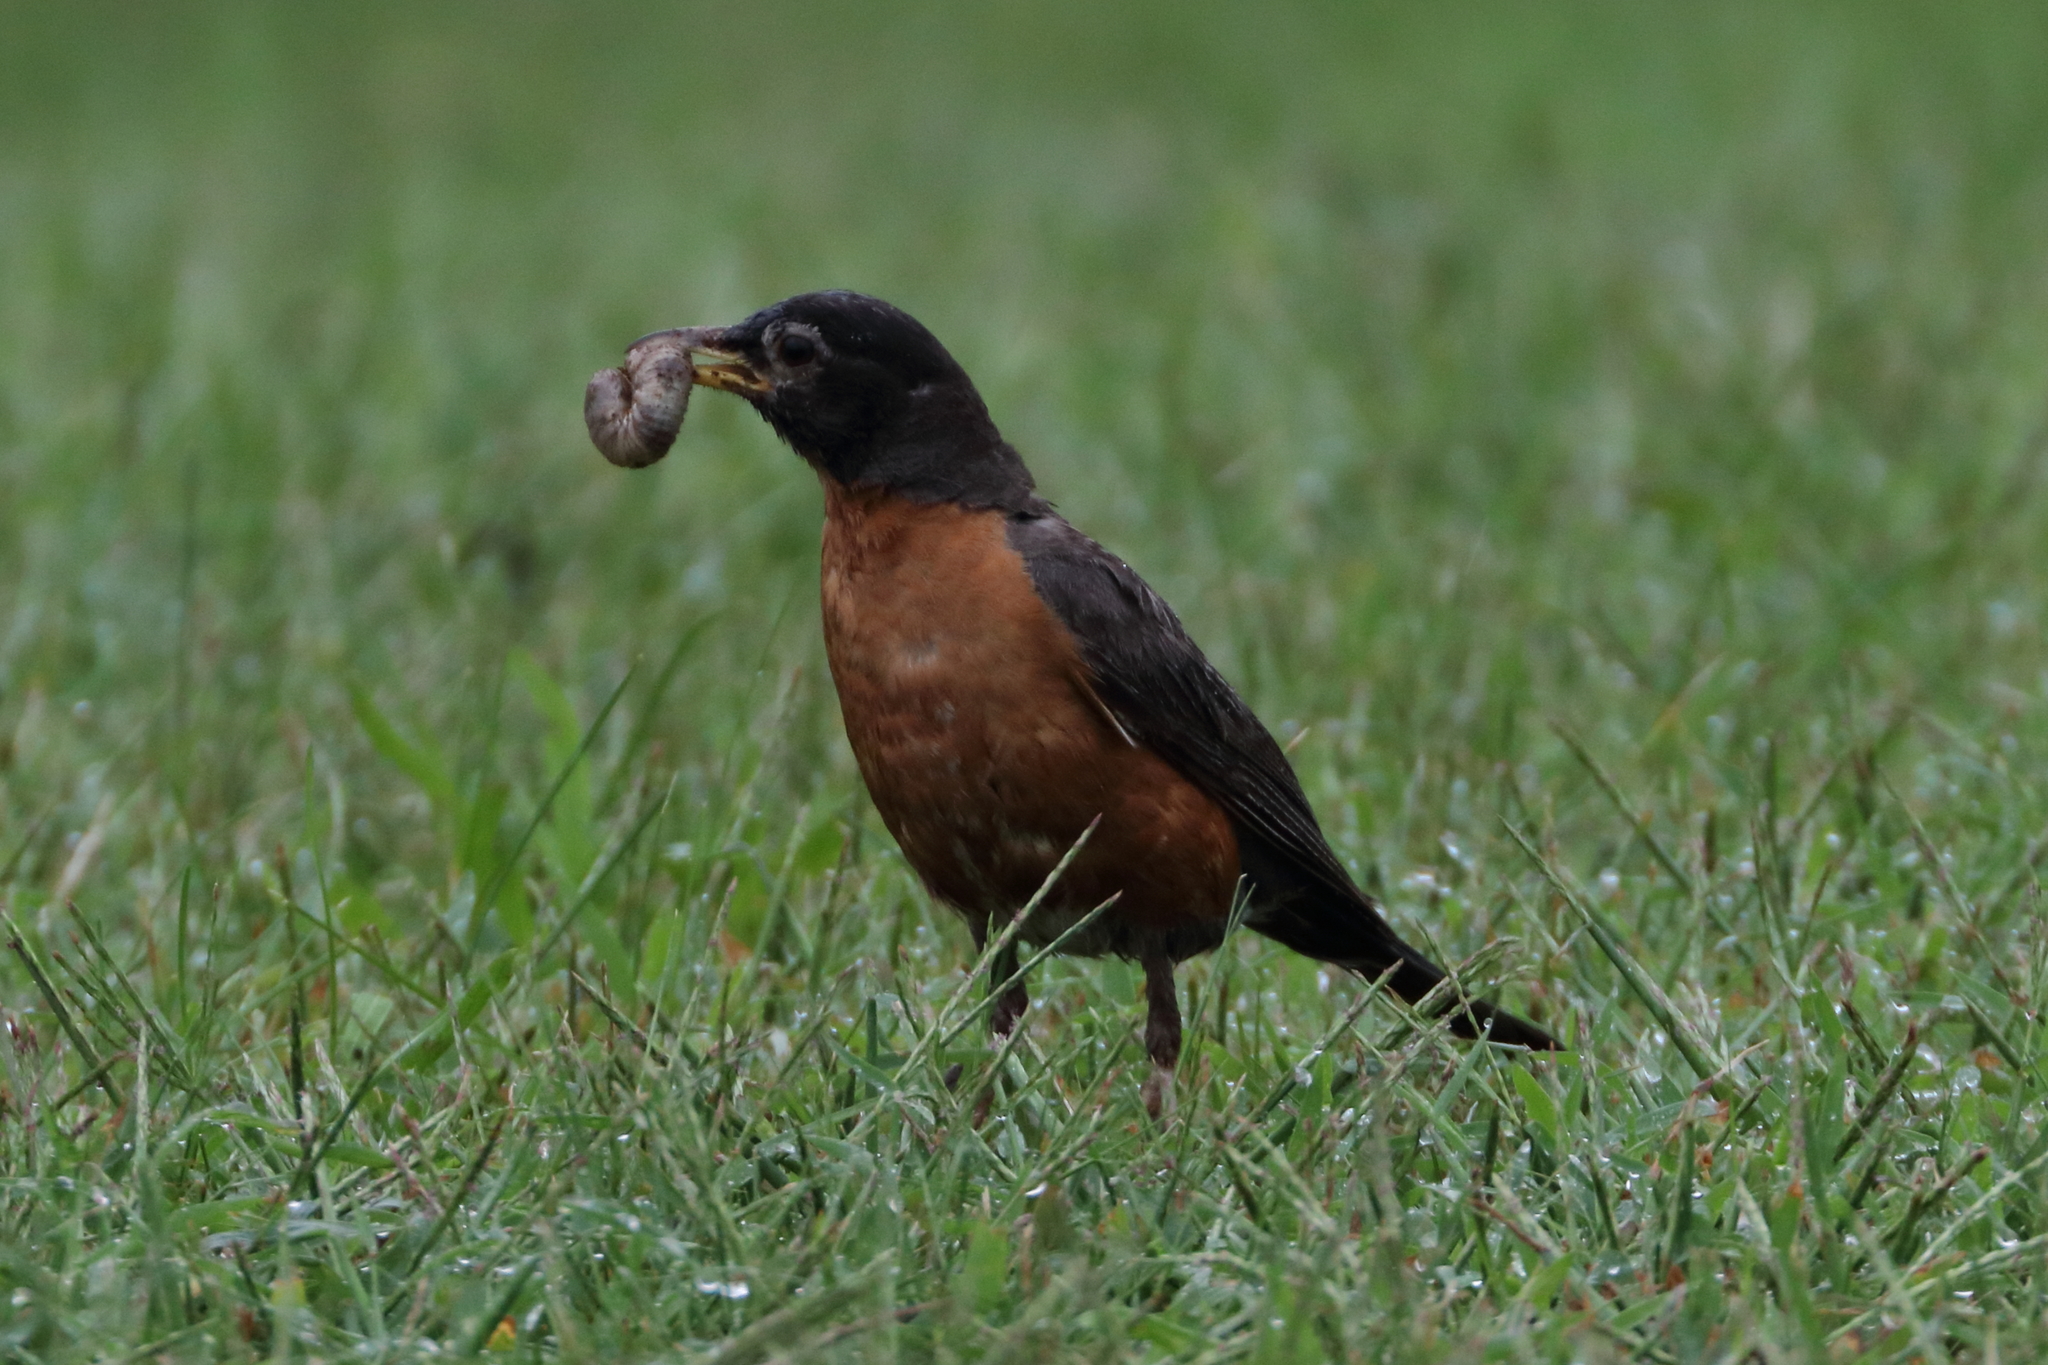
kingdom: Animalia
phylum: Chordata
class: Aves
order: Passeriformes
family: Turdidae
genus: Turdus
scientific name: Turdus migratorius
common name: American robin
